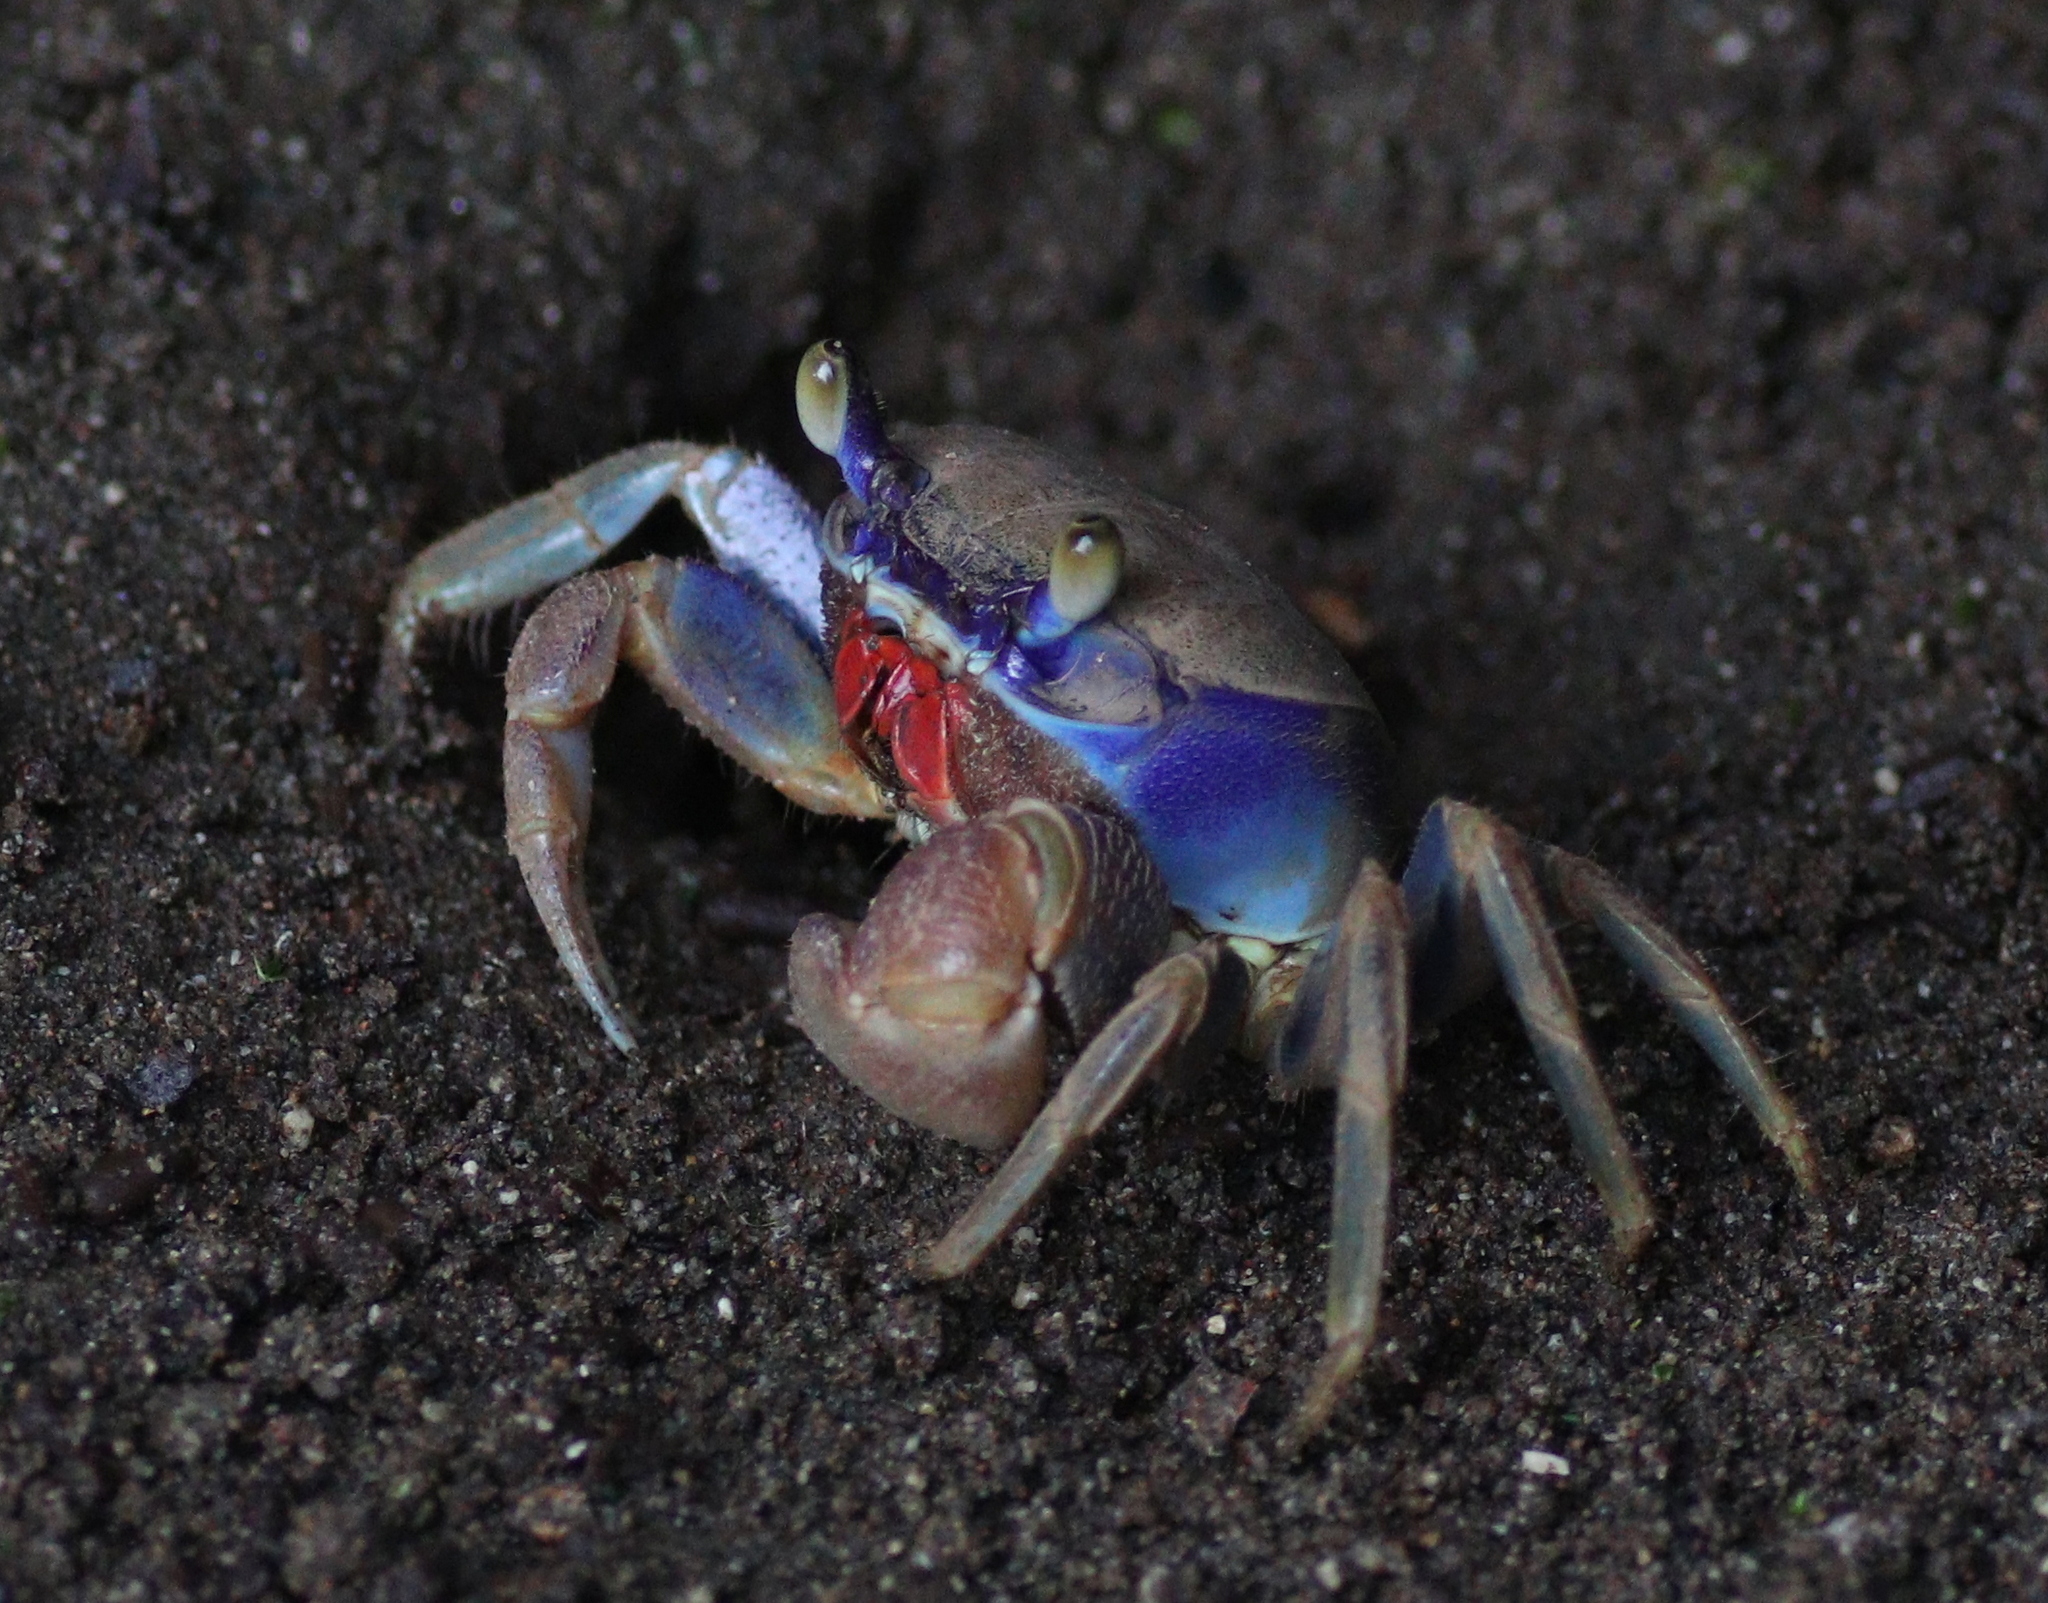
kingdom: Animalia
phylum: Arthropoda
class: Malacostraca
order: Decapoda
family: Gecarcinidae
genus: Cardisoma
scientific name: Cardisoma guanhumi
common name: Great land crab
